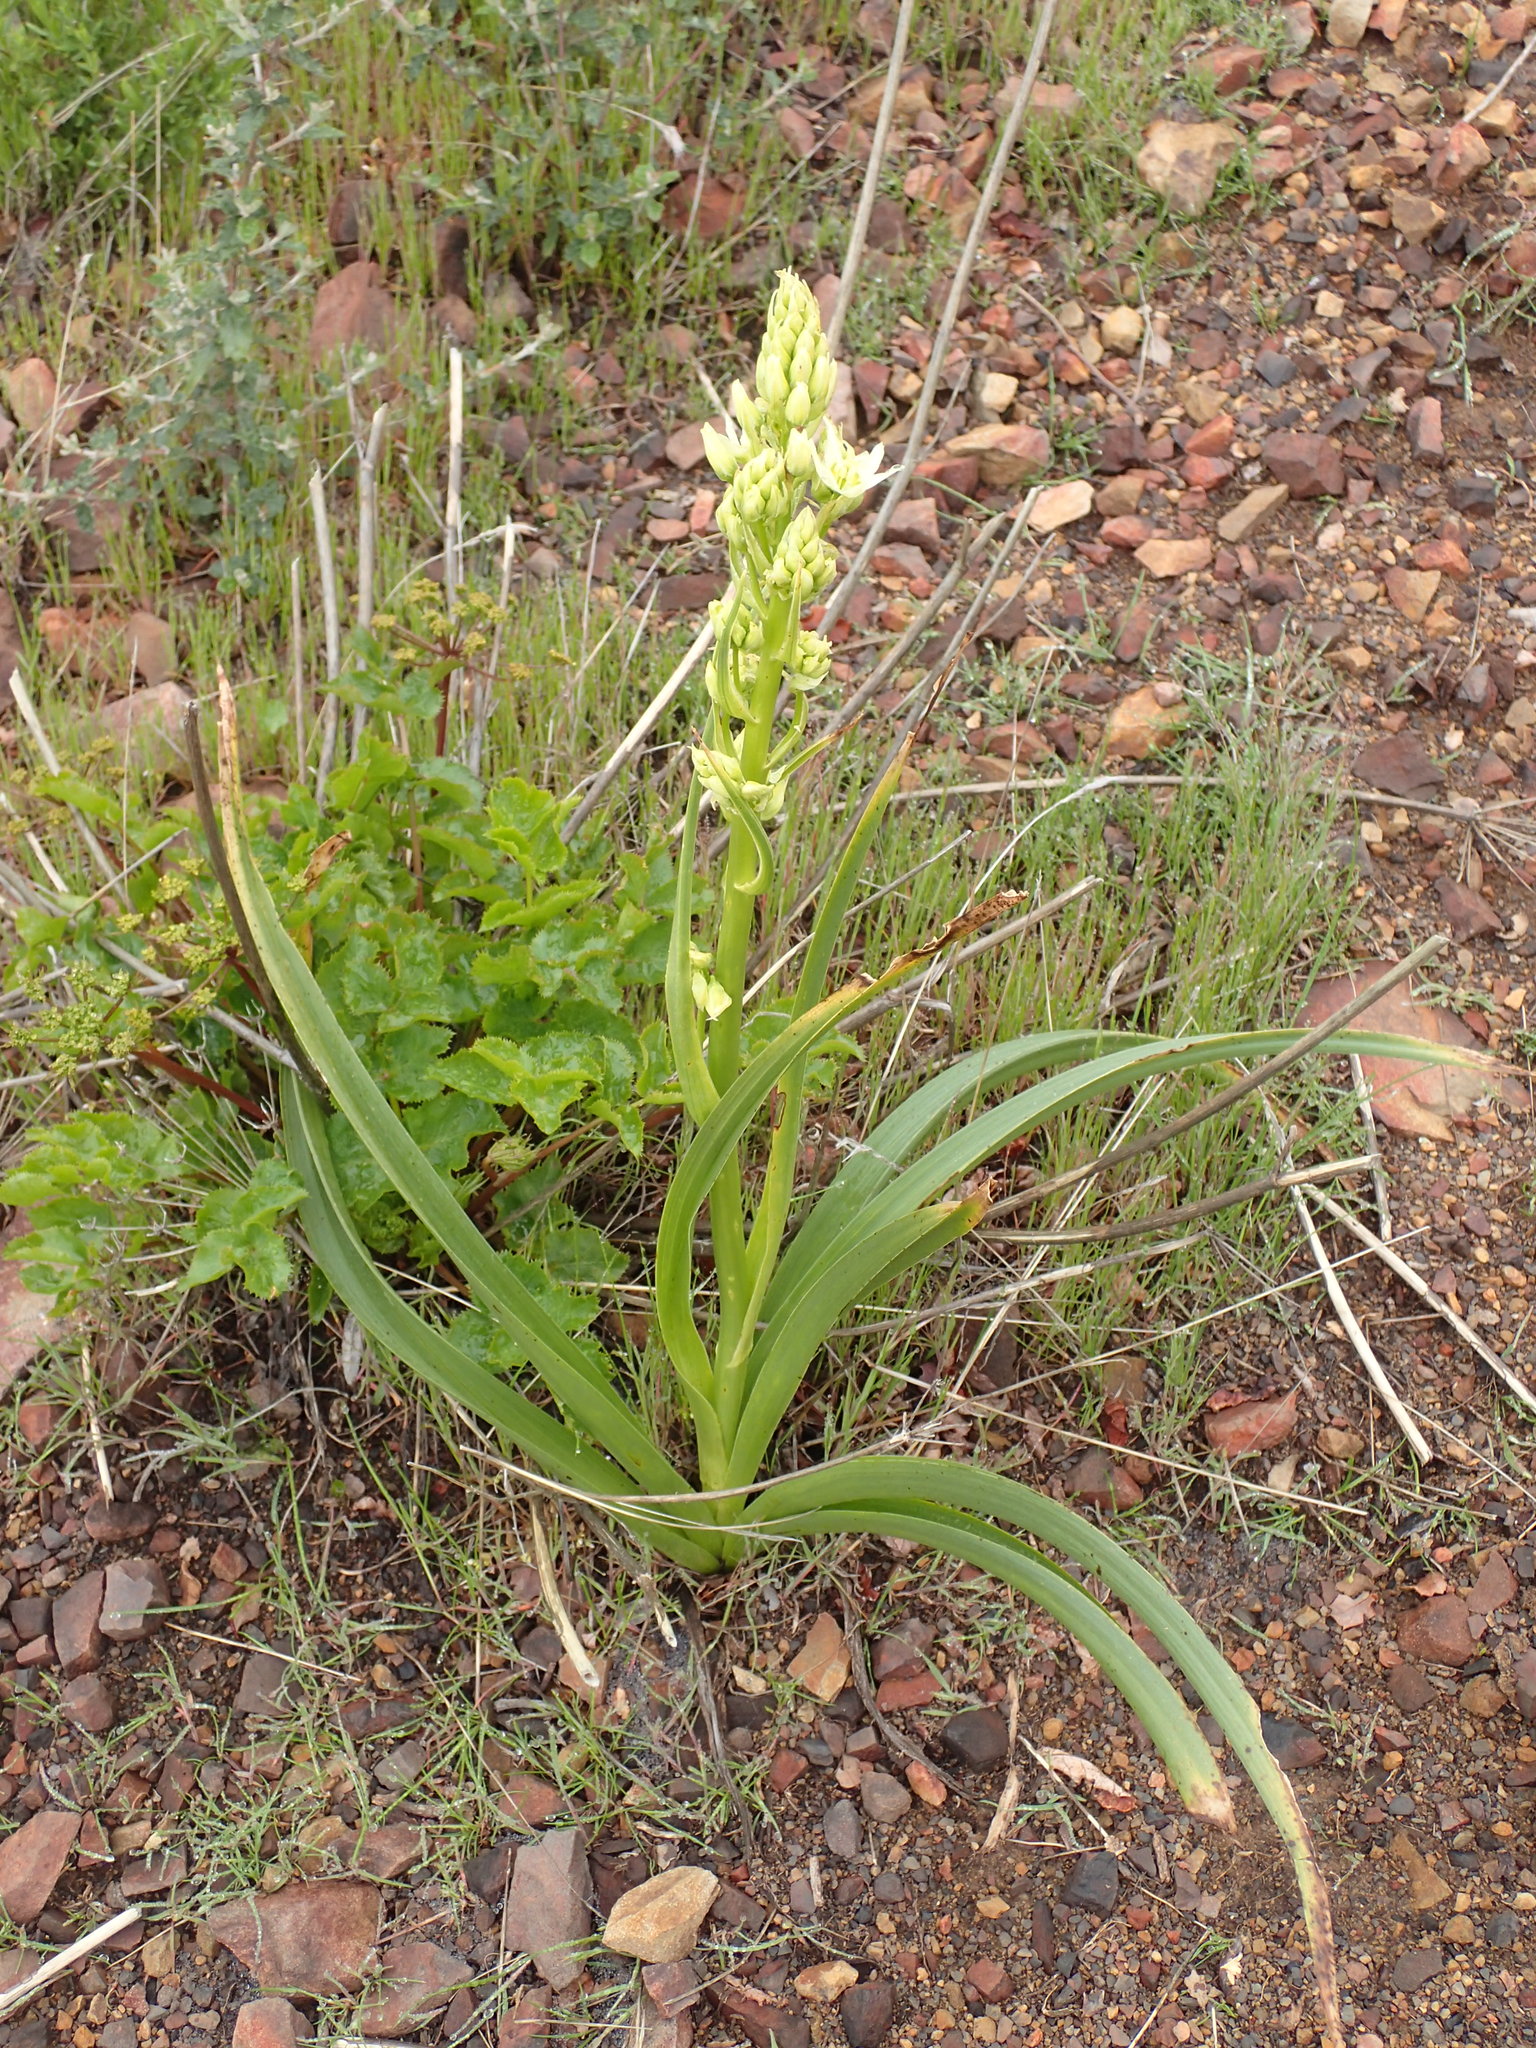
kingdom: Plantae
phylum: Tracheophyta
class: Liliopsida
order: Liliales
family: Melanthiaceae
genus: Toxicoscordion
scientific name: Toxicoscordion fremontii
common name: Fremont's death camas
